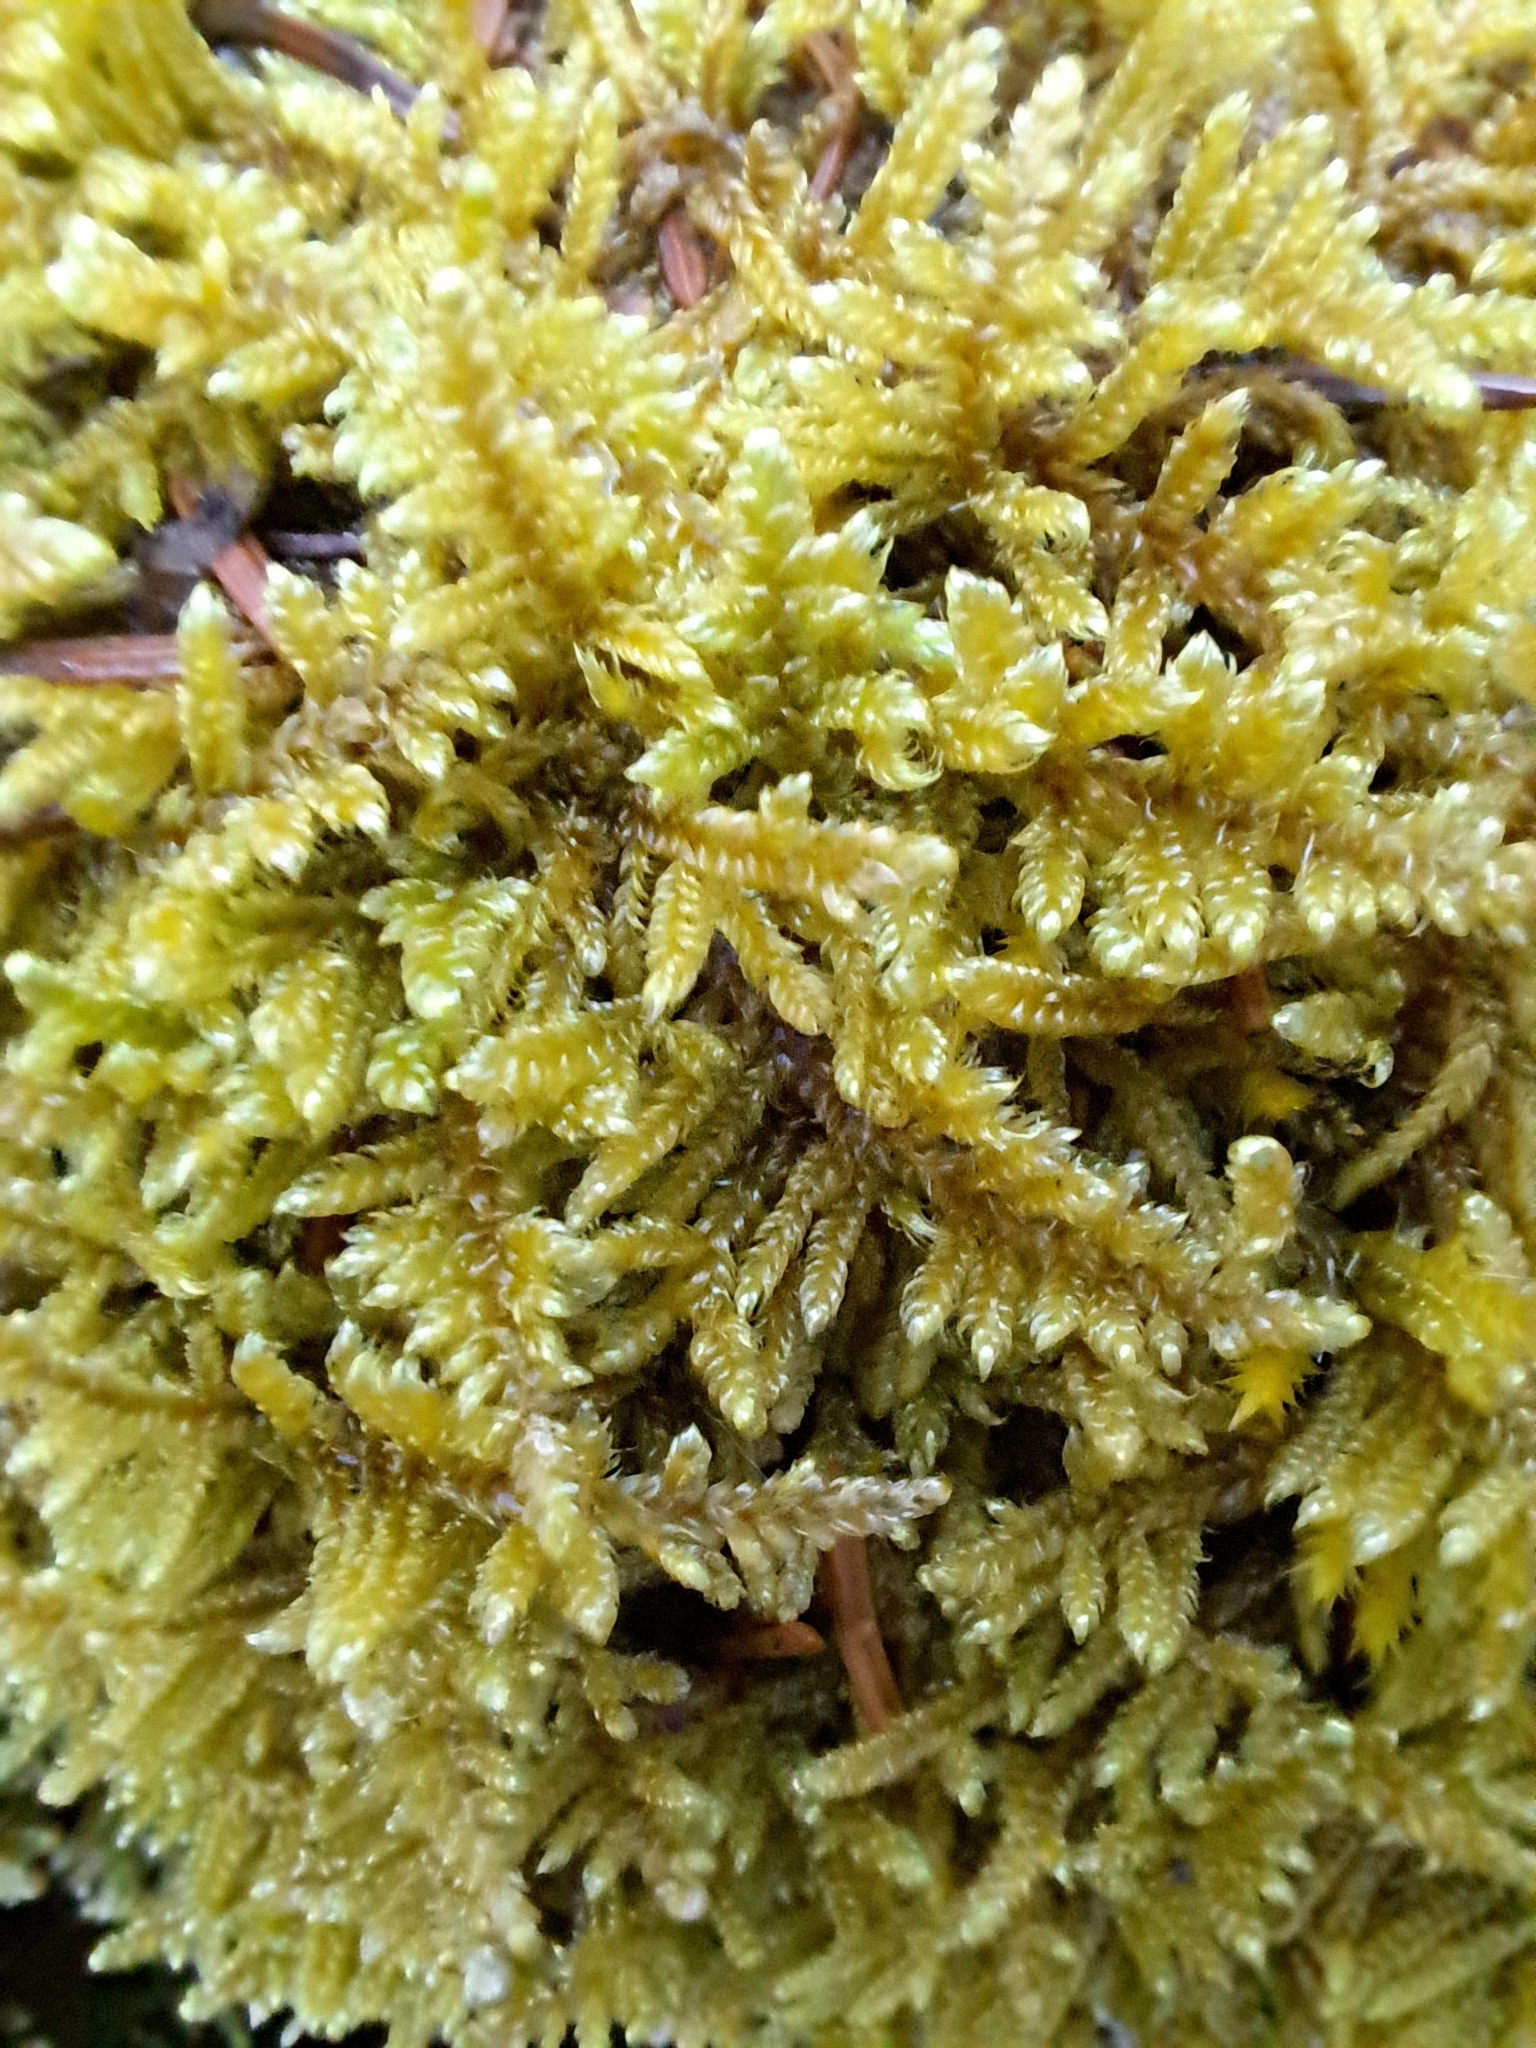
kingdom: Plantae
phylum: Bryophyta
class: Bryopsida
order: Hypnales
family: Callicladiaceae
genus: Callicladium
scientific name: Callicladium imponens
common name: Brocade moss
